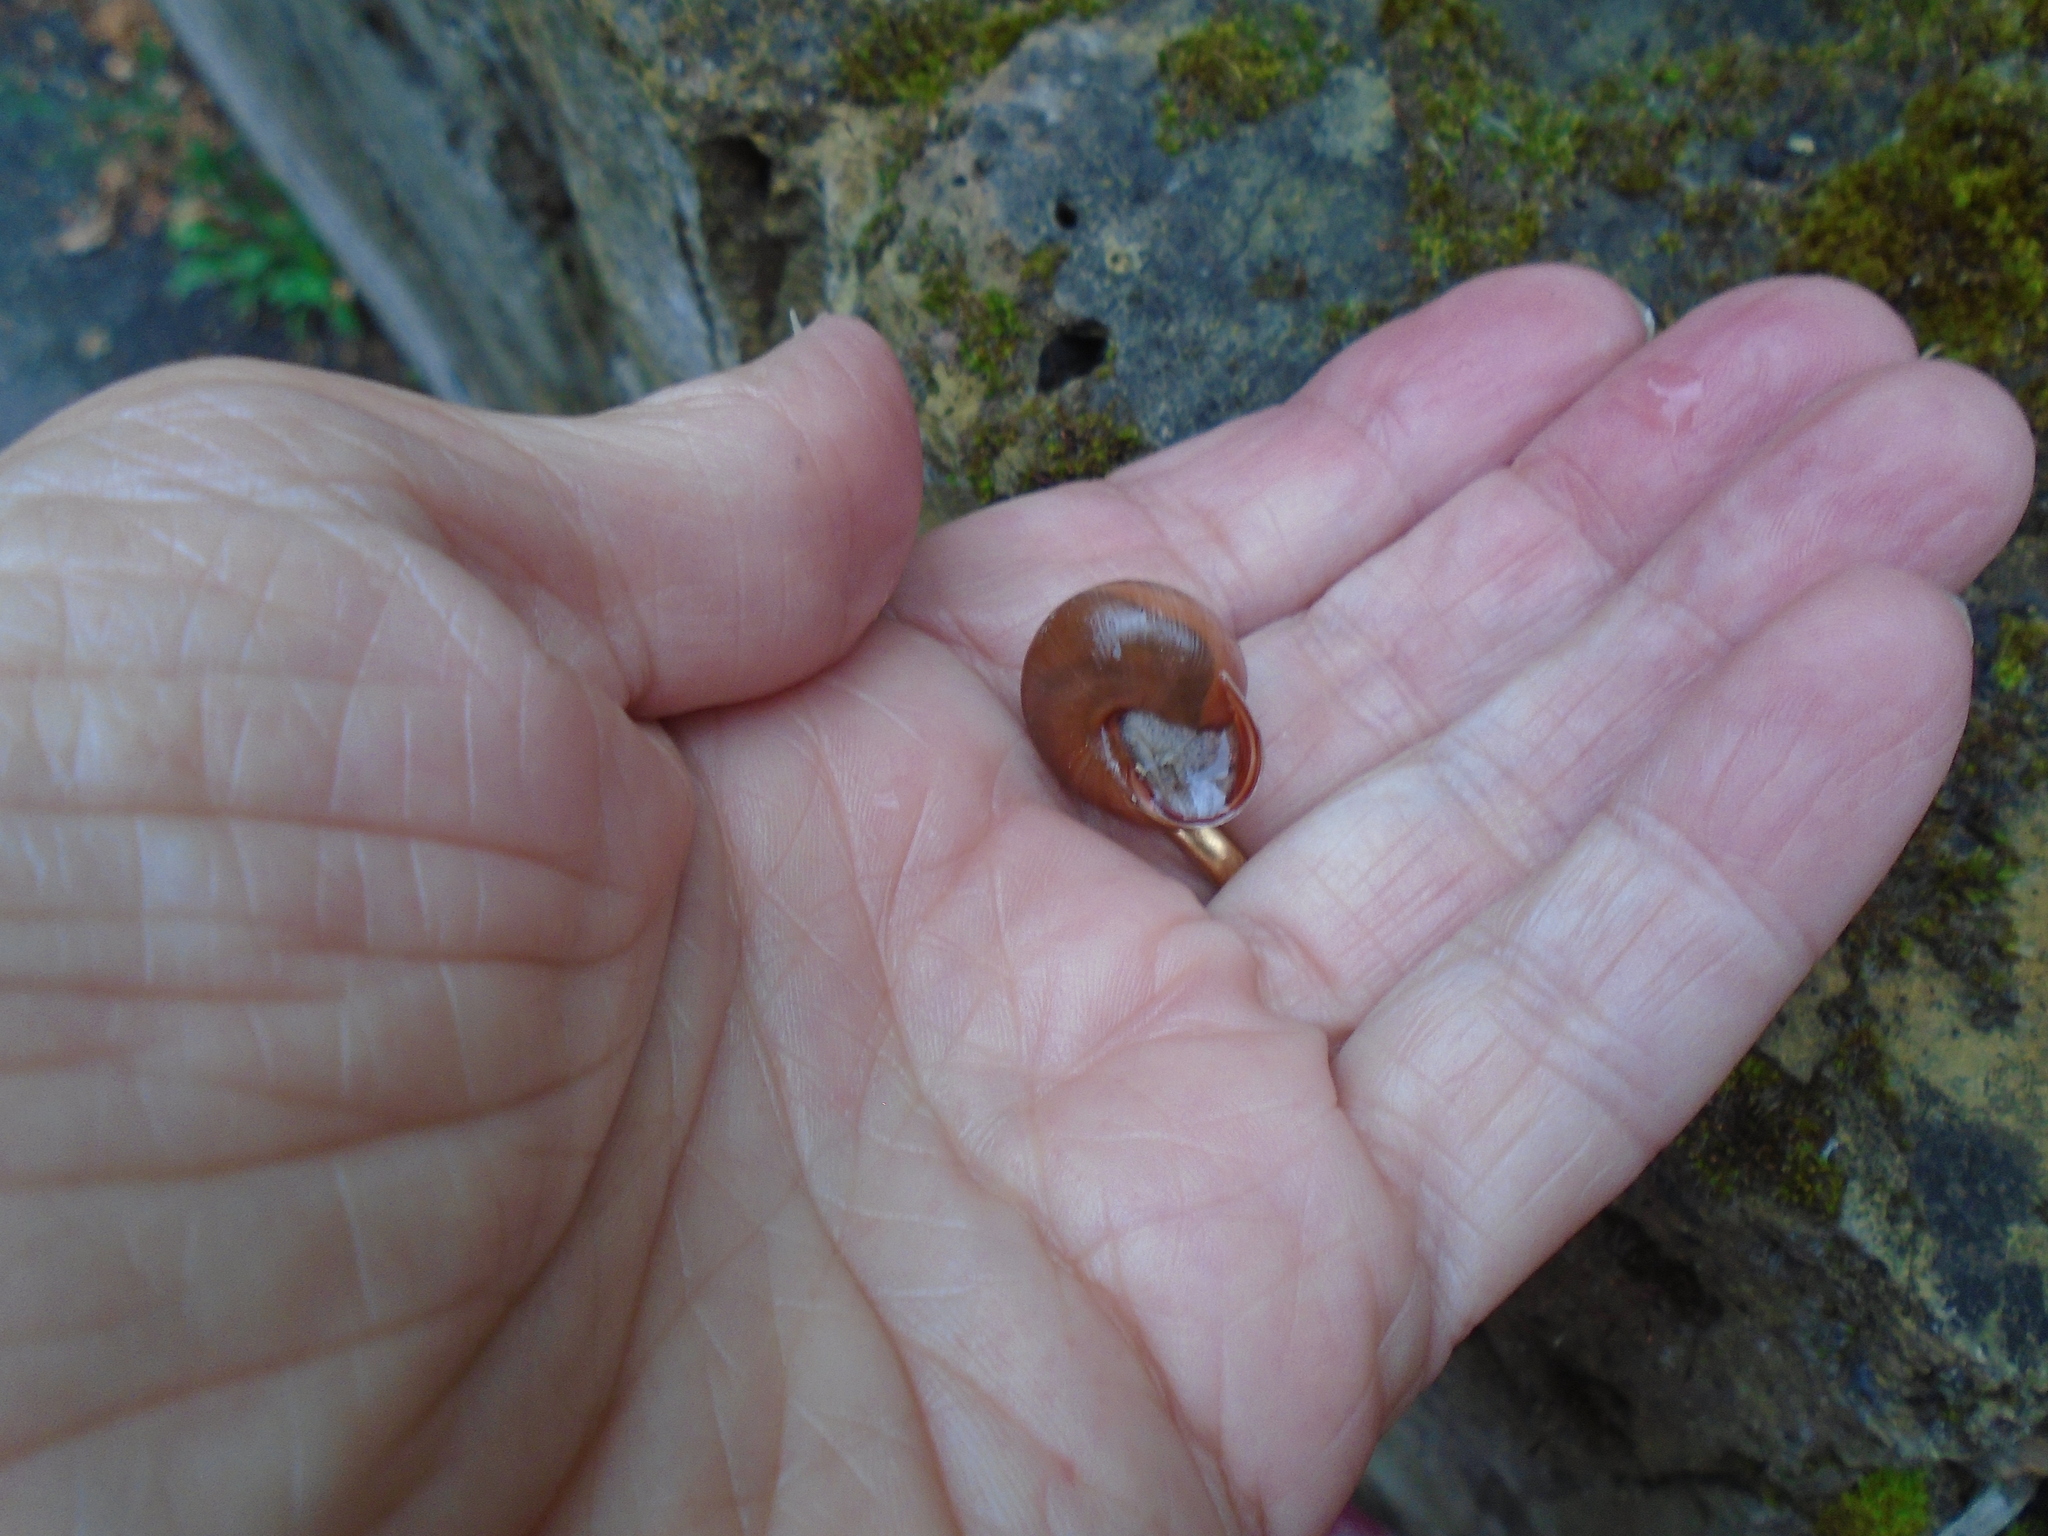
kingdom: Animalia
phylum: Mollusca
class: Gastropoda
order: Stylommatophora
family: Helicidae
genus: Cepaea
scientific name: Cepaea nemoralis
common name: Grovesnail
